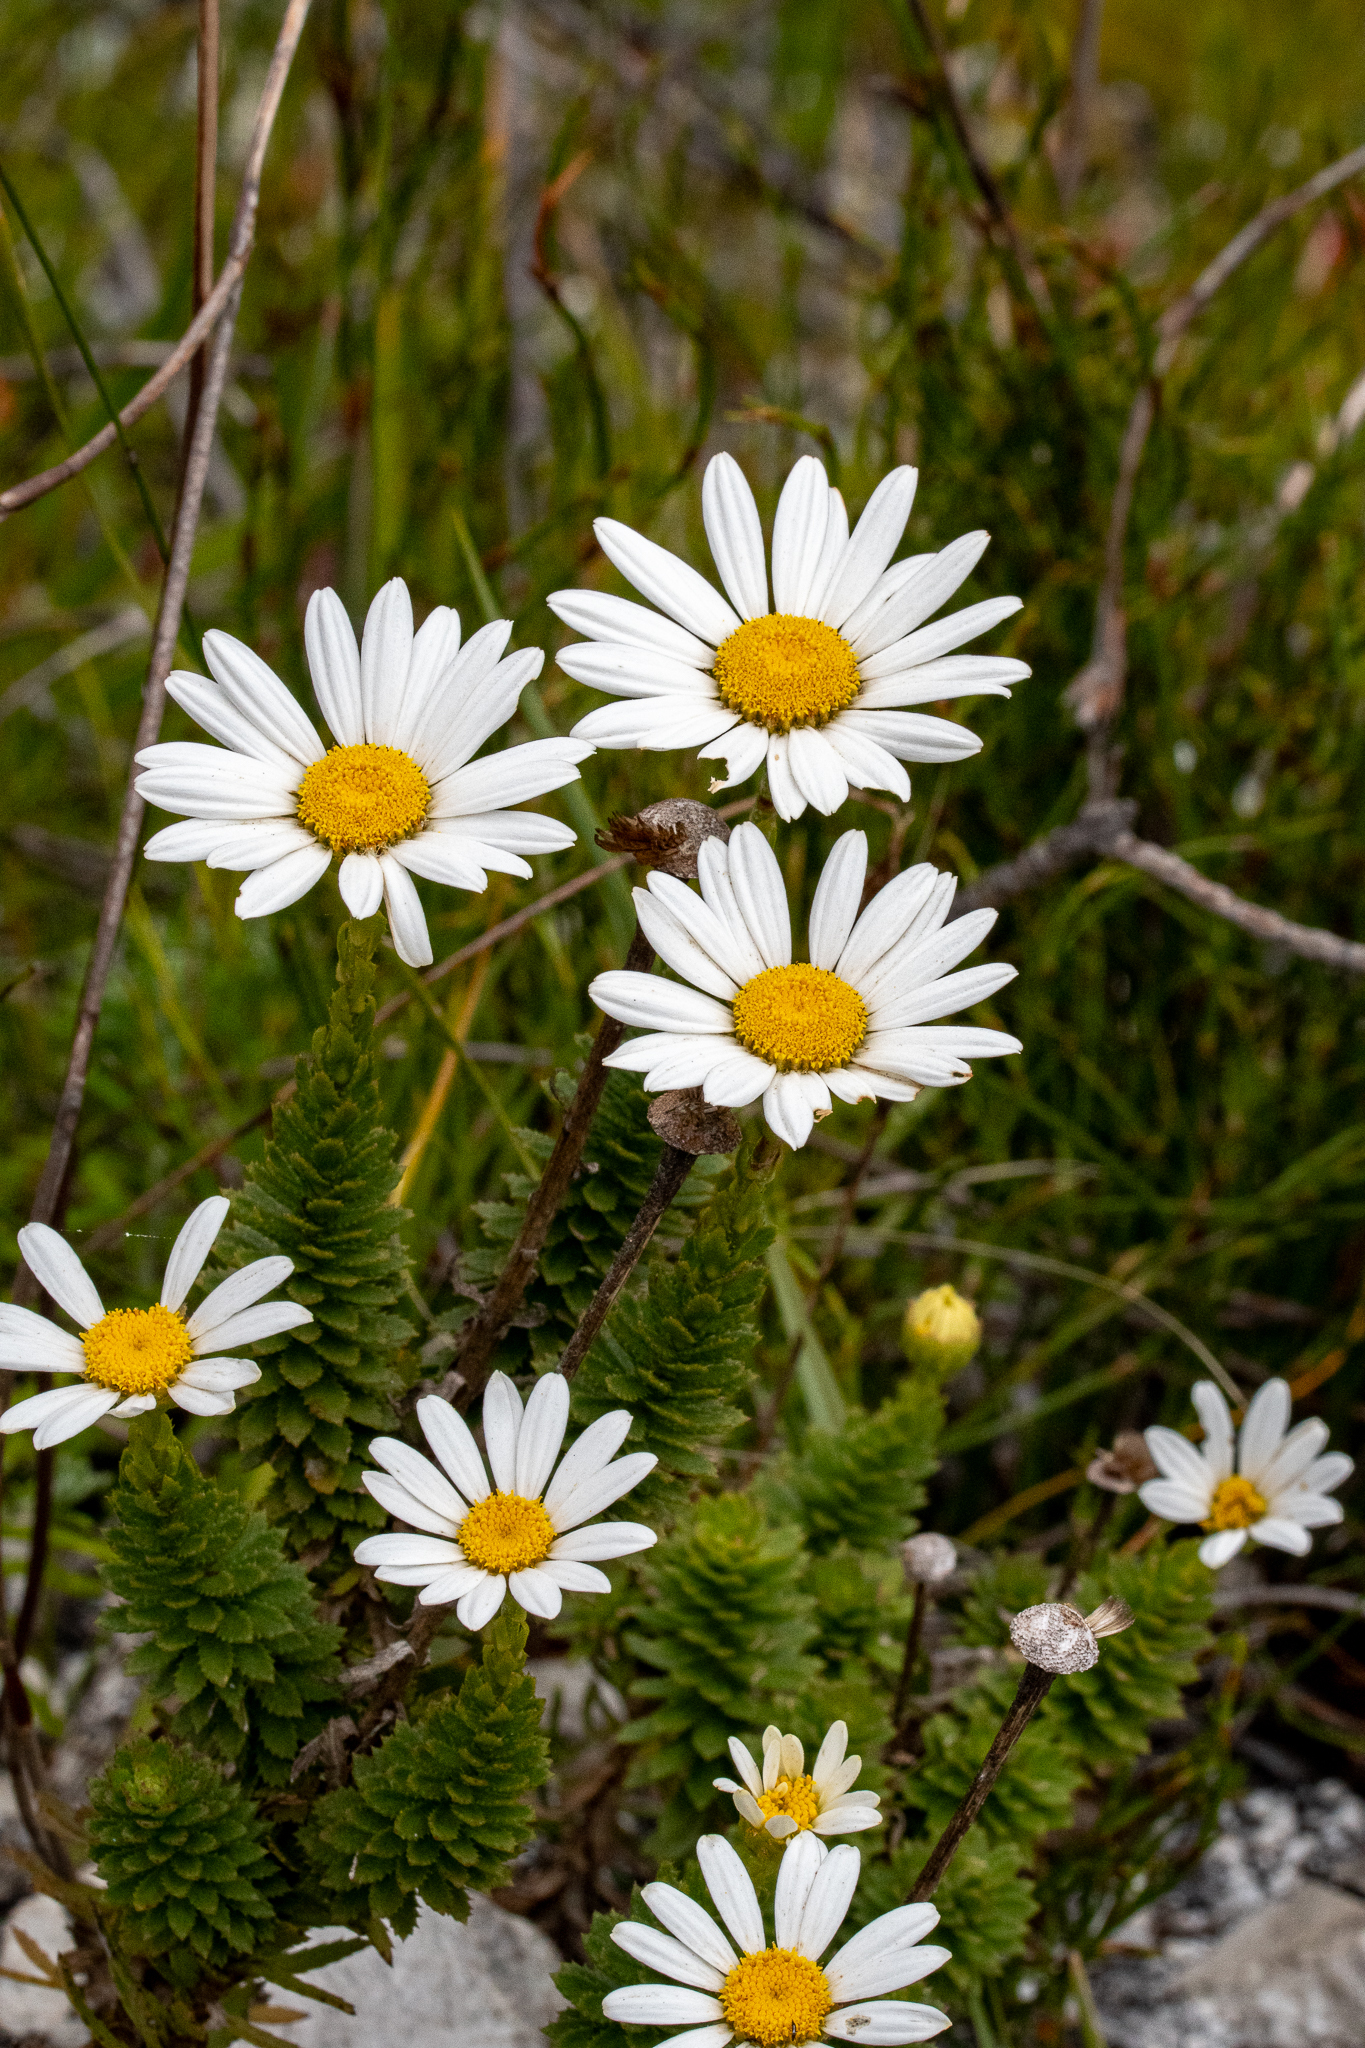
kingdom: Plantae
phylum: Tracheophyta
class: Magnoliopsida
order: Asterales
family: Asteraceae
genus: Osmitopsis
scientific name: Osmitopsis afra
